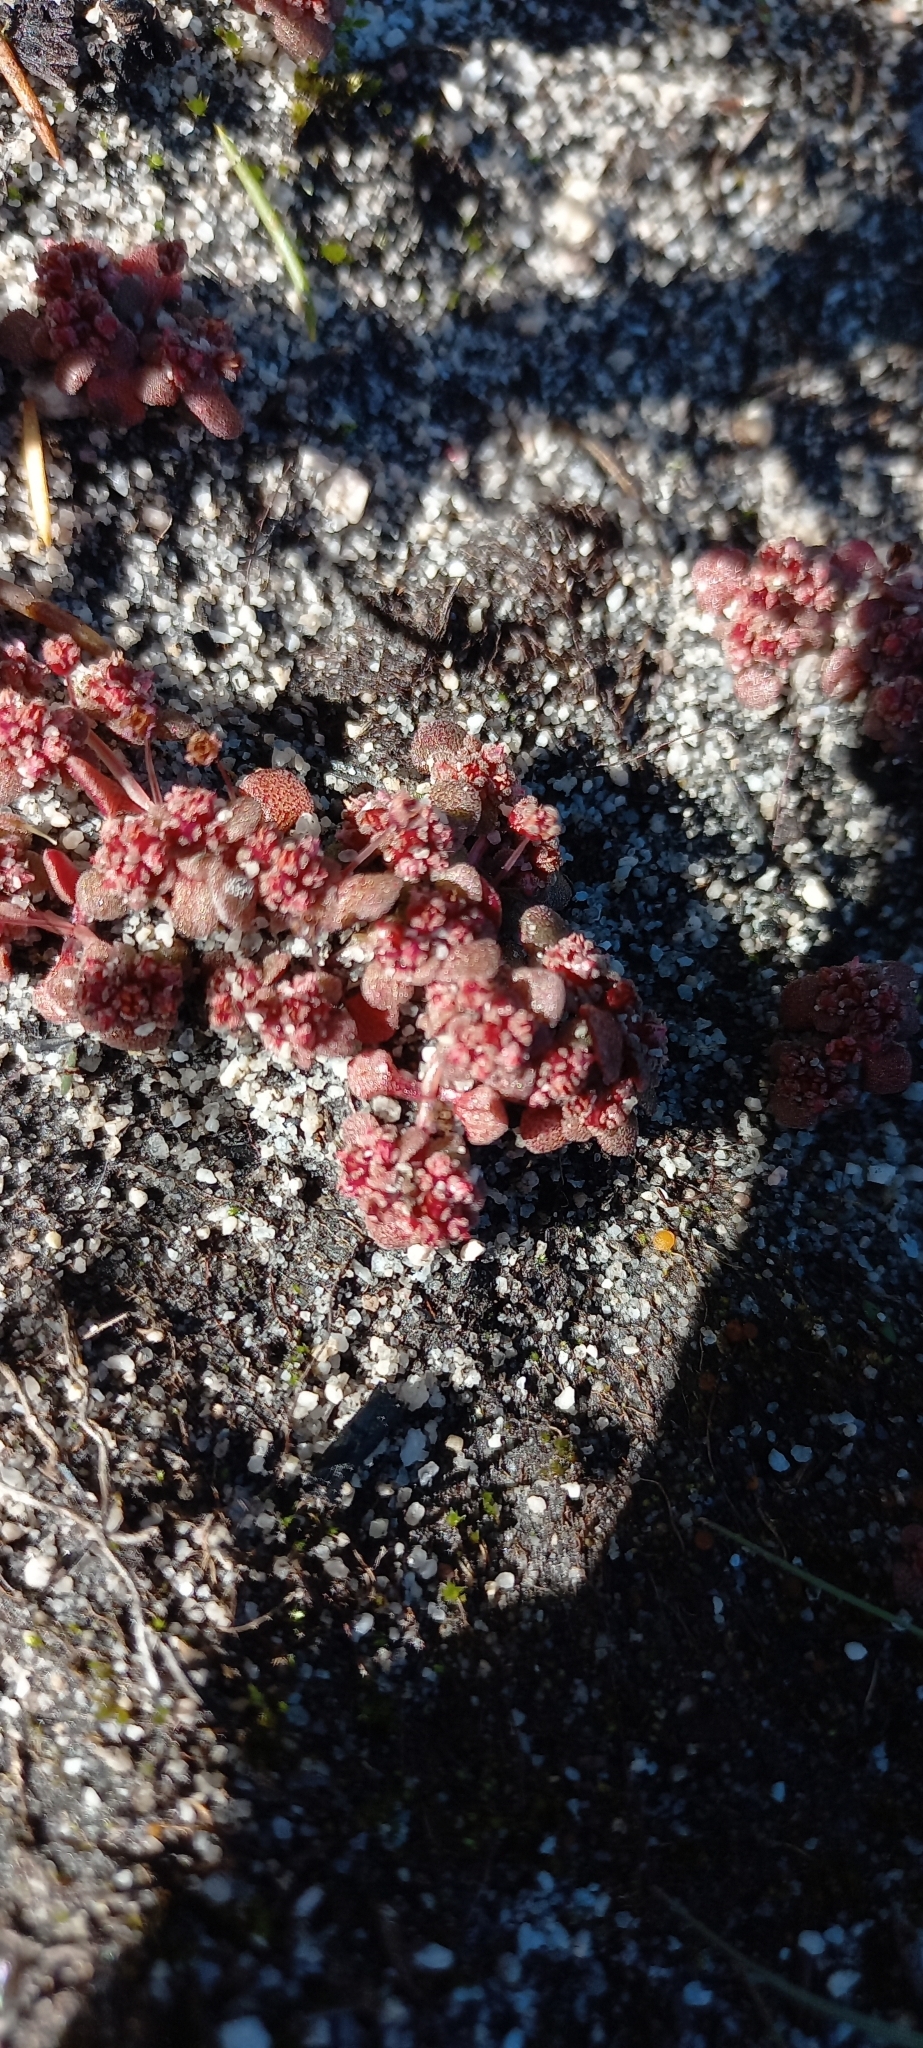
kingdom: Plantae
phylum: Tracheophyta
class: Magnoliopsida
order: Saxifragales
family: Crassulaceae
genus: Crassula
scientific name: Crassula umbellata
